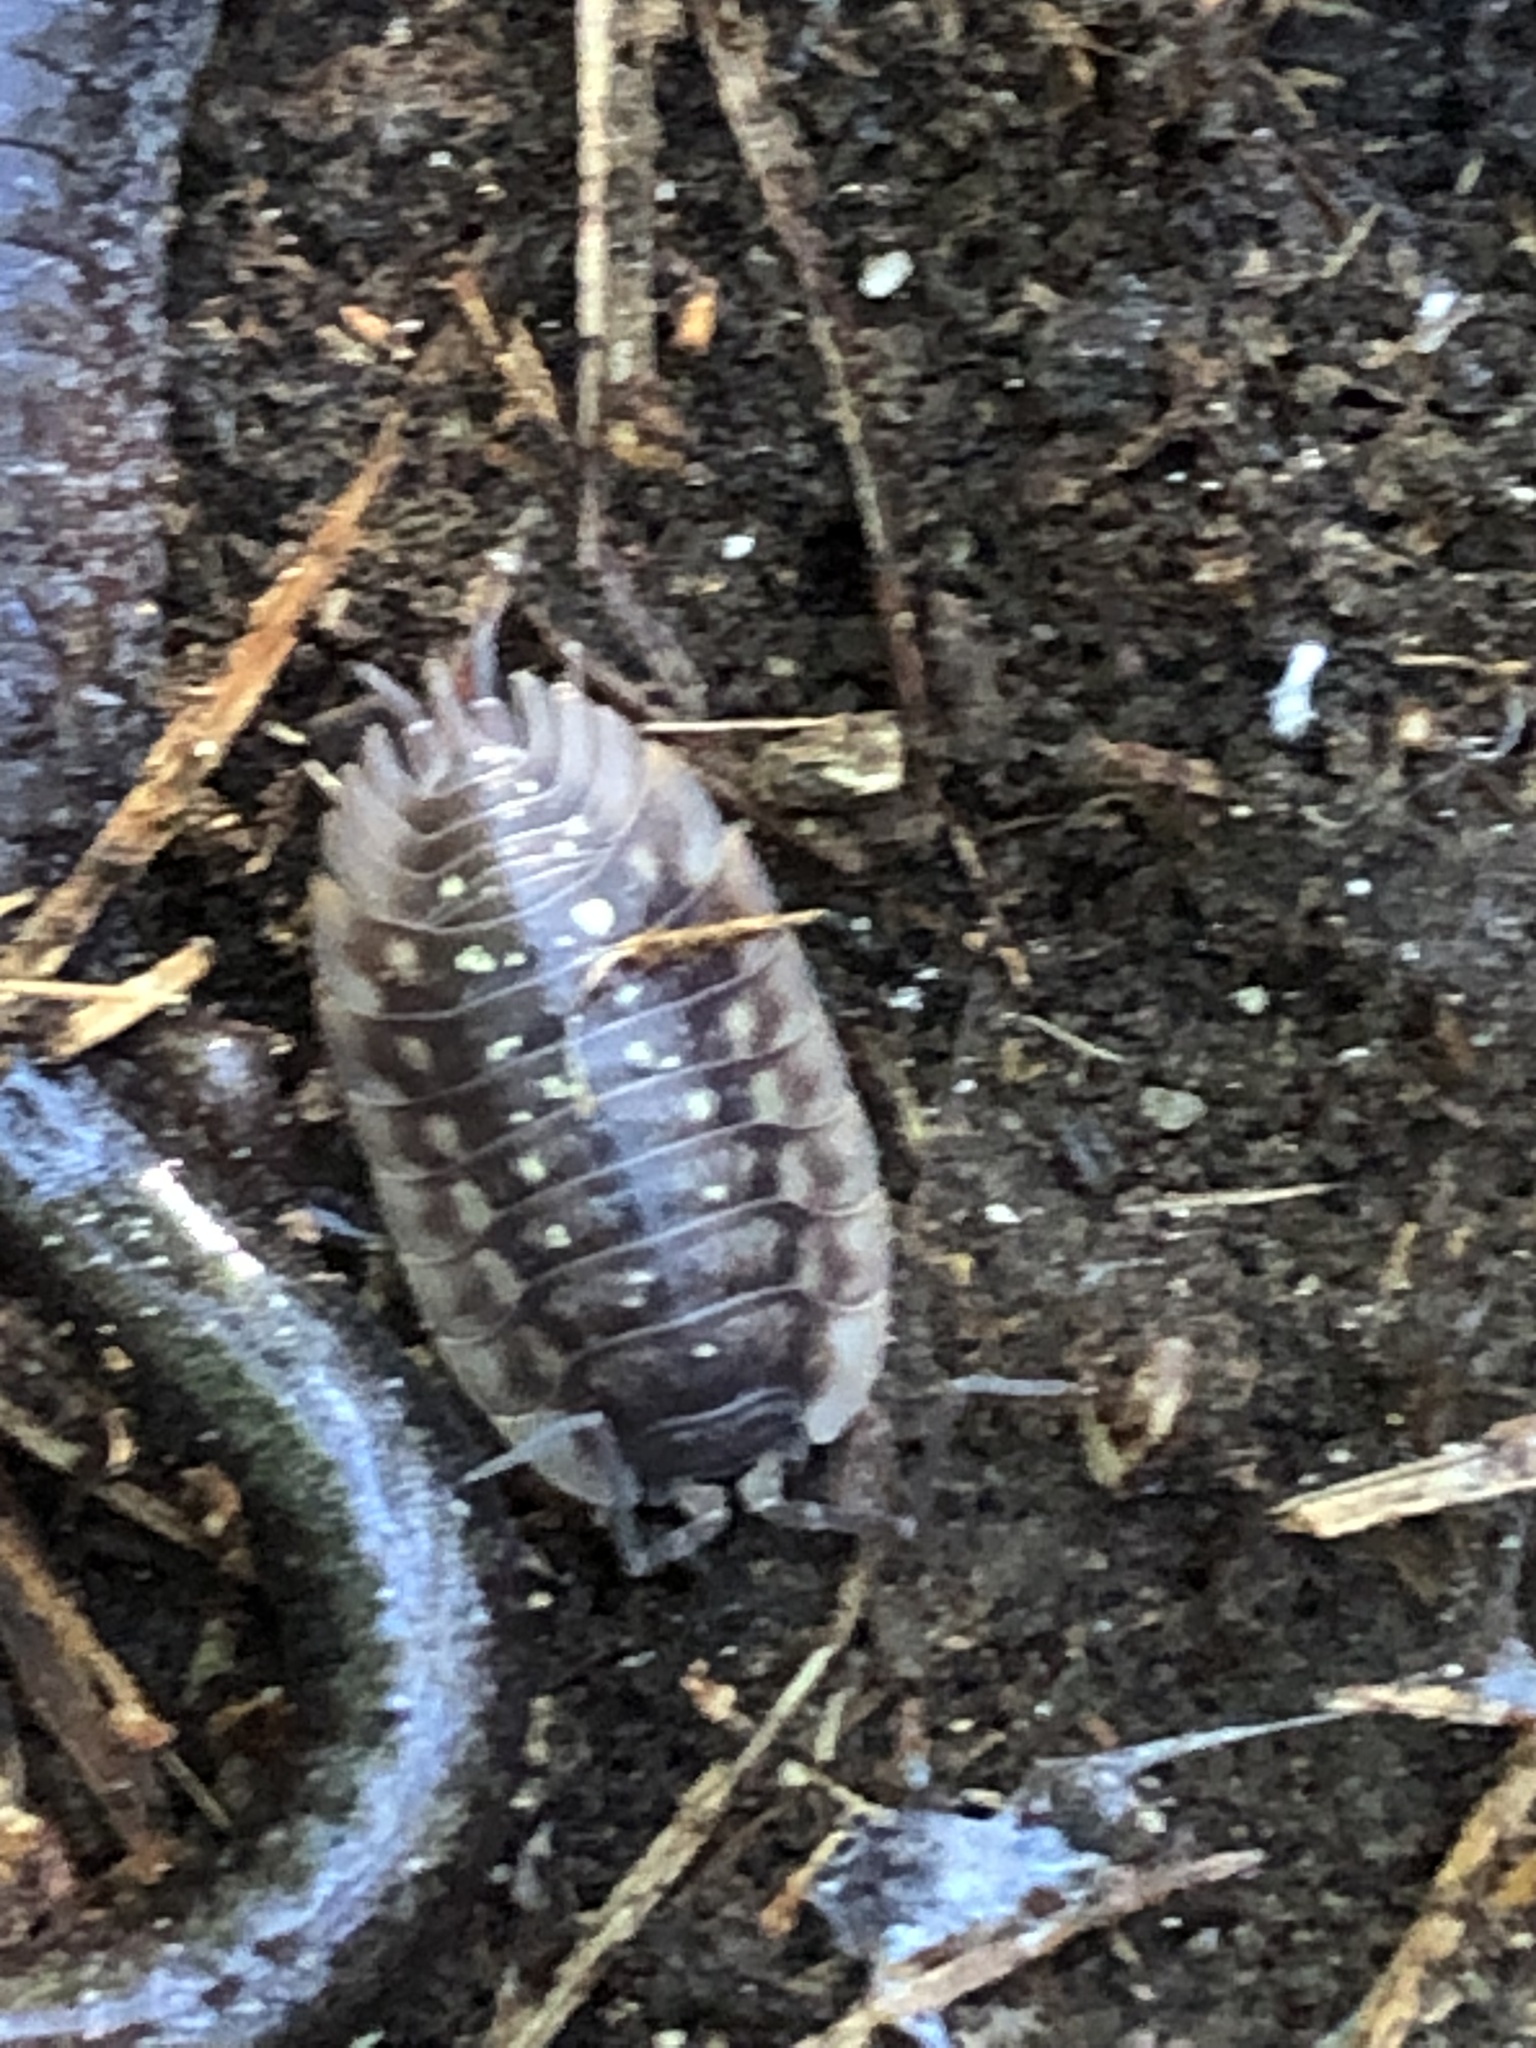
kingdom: Animalia
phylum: Arthropoda
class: Malacostraca
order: Isopoda
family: Oniscidae
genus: Oniscus
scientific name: Oniscus asellus
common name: Common shiny woodlouse
